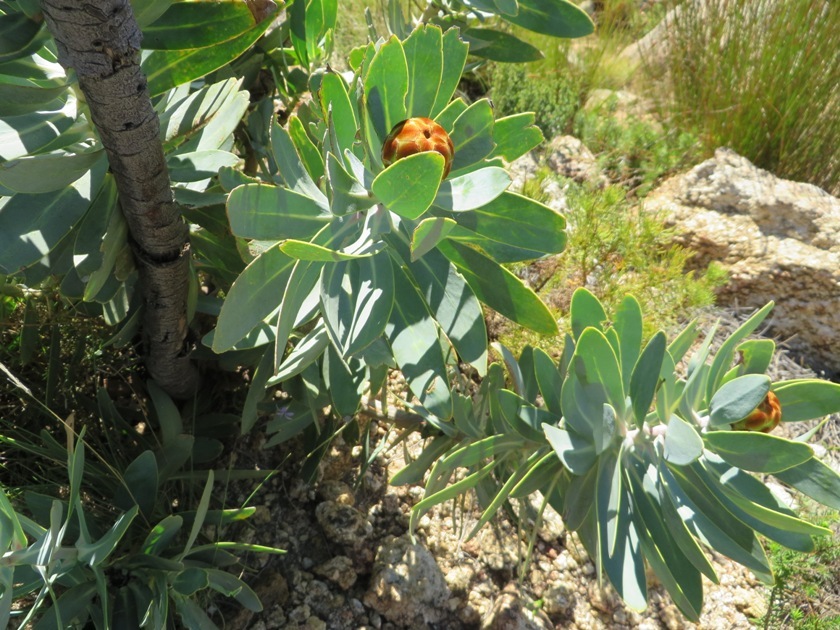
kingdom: Plantae
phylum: Tracheophyta
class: Magnoliopsida
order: Proteales
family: Proteaceae
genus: Protea
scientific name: Protea nitida
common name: Tree protea
